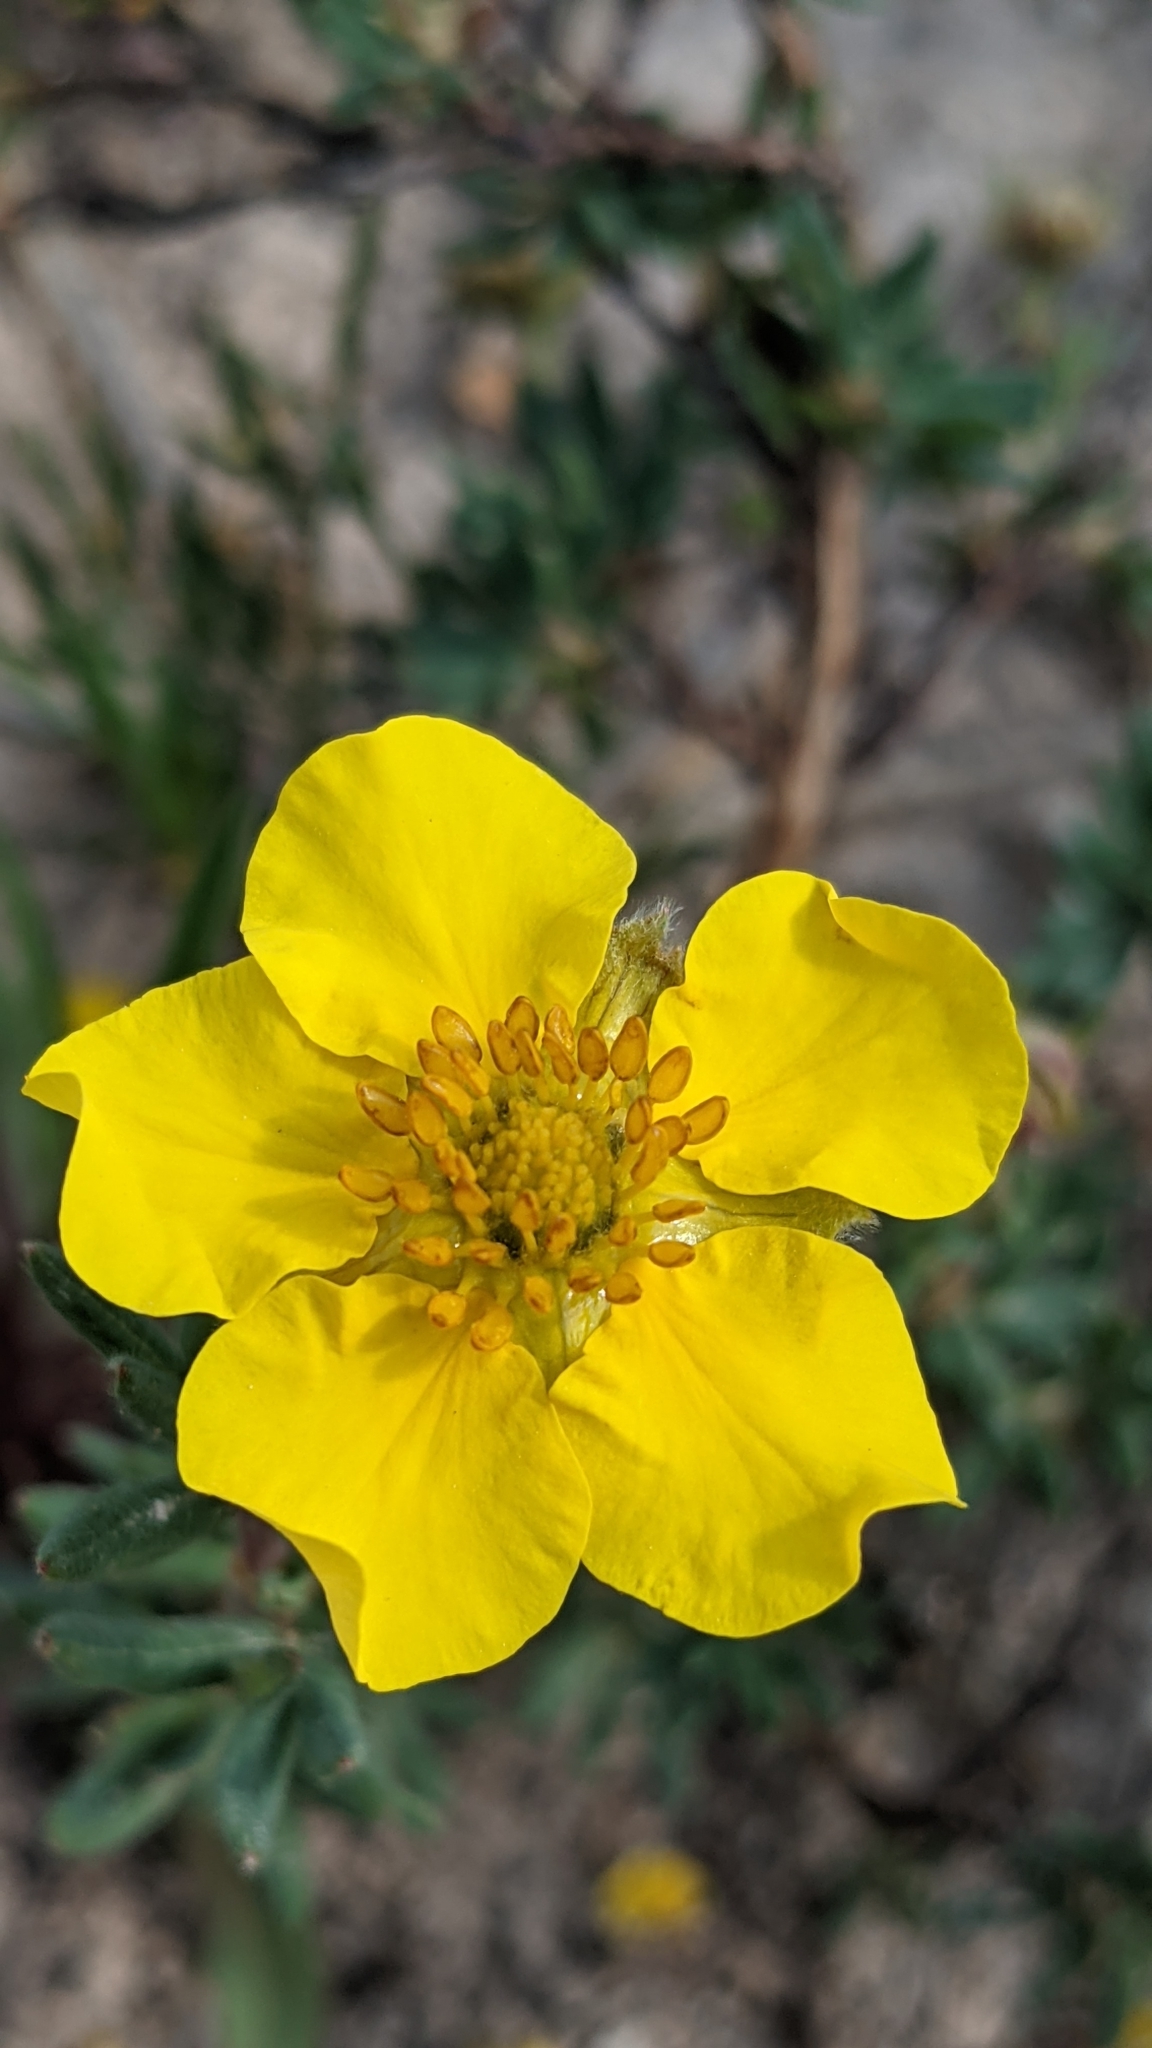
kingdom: Plantae
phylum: Tracheophyta
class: Magnoliopsida
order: Rosales
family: Rosaceae
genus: Dasiphora
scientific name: Dasiphora fruticosa
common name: Shrubby cinquefoil
